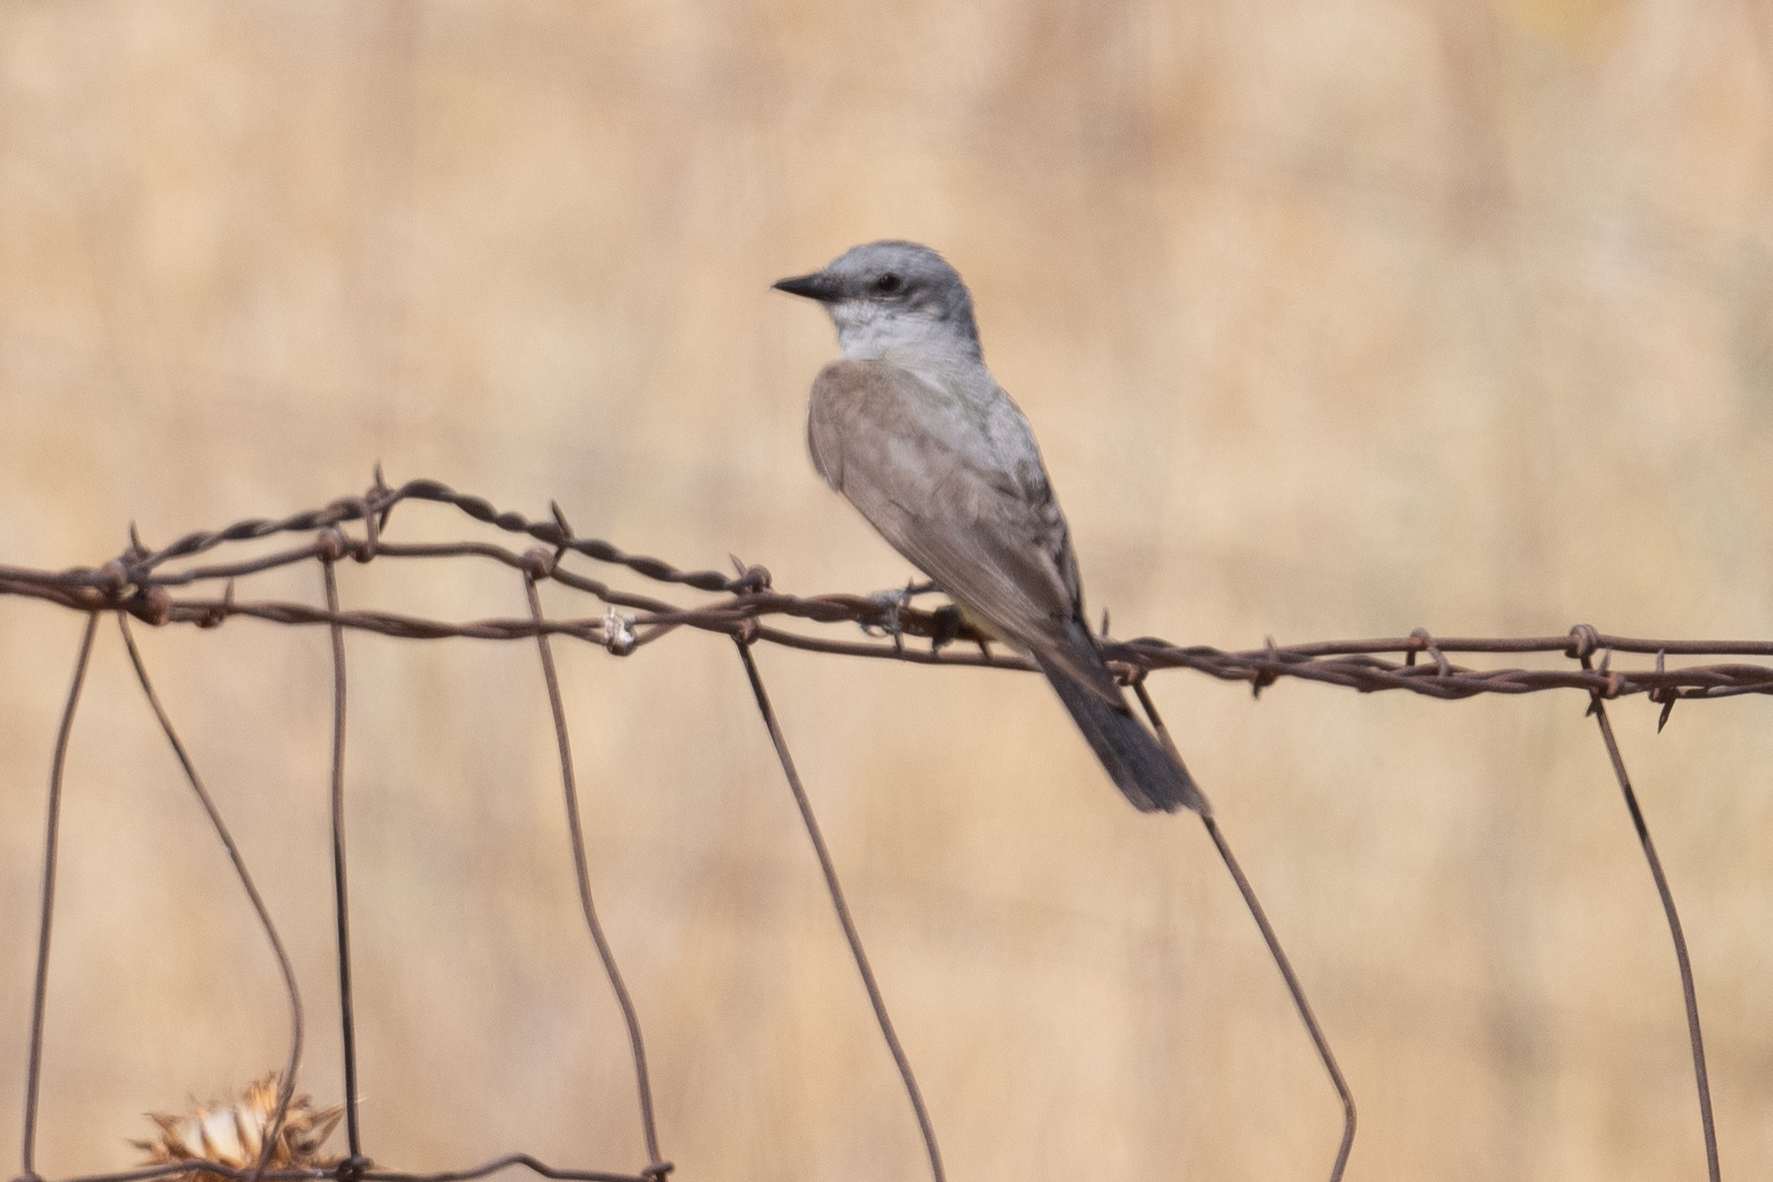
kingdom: Animalia
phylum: Chordata
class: Aves
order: Passeriformes
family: Tyrannidae
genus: Tyrannus
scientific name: Tyrannus verticalis
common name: Western kingbird
